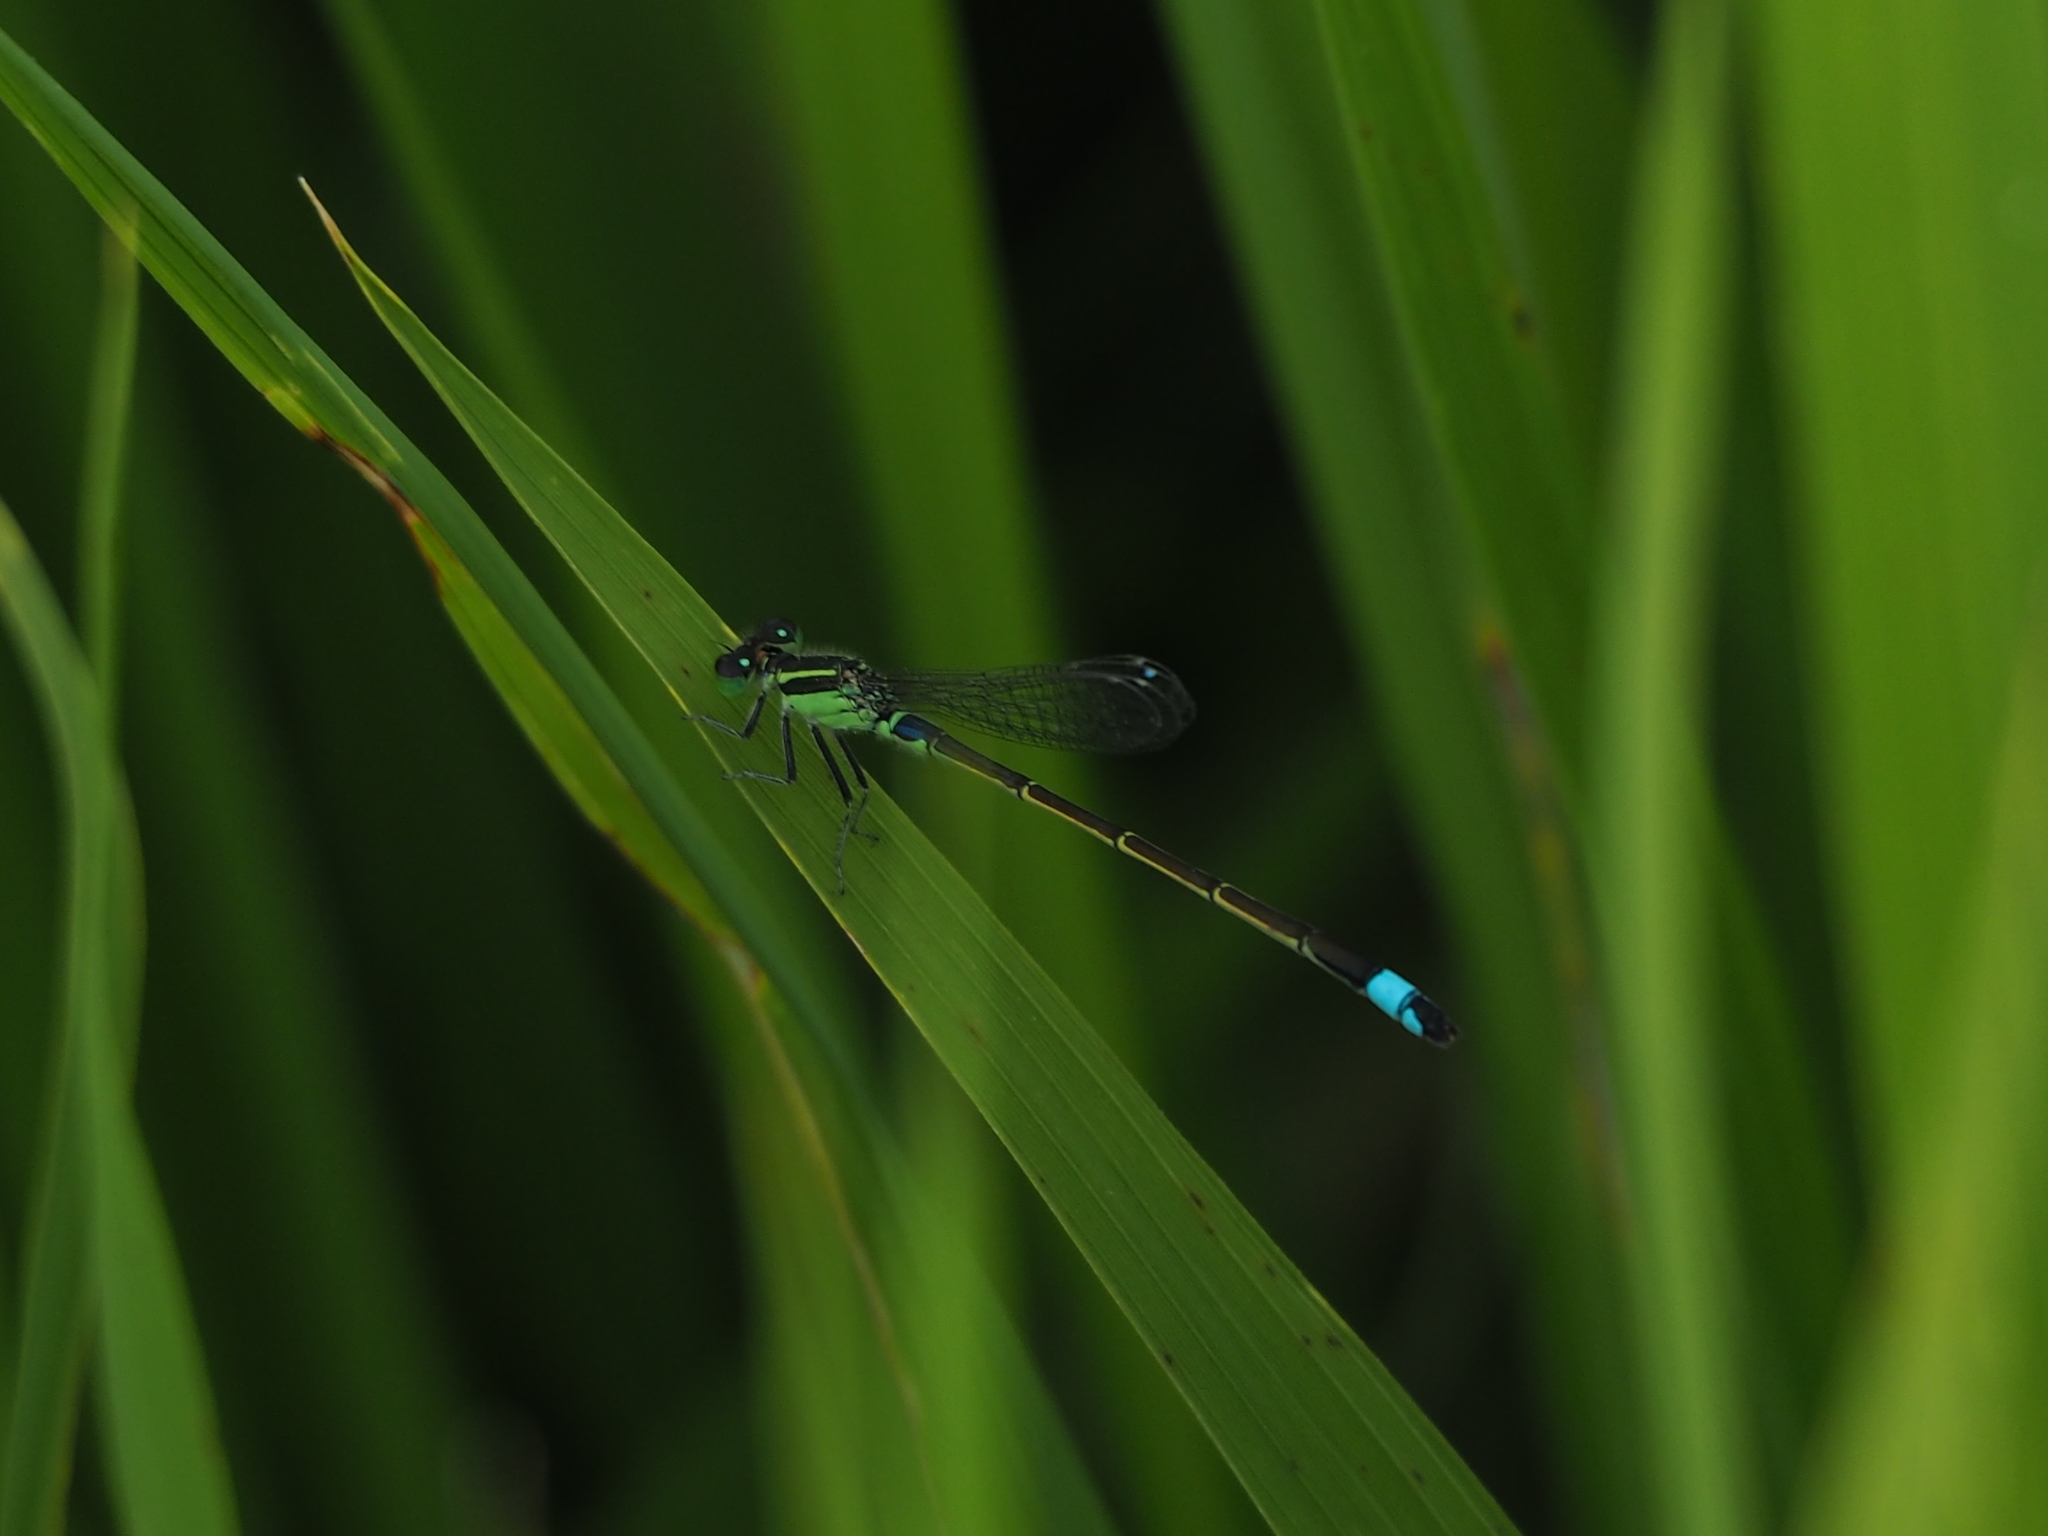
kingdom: Animalia
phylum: Arthropoda
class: Insecta
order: Odonata
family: Coenagrionidae
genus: Ischnura
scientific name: Ischnura senegalensis
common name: Tropical bluetail
